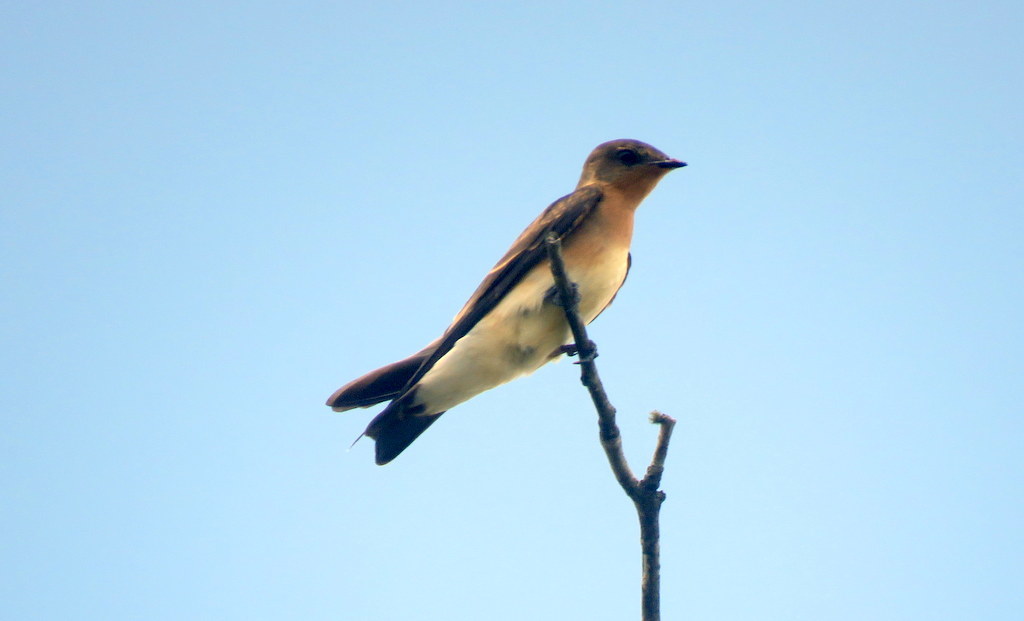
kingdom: Animalia
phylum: Chordata
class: Aves
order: Passeriformes
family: Hirundinidae
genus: Alopochelidon
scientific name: Alopochelidon fucata
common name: Tawny-headed swallow
